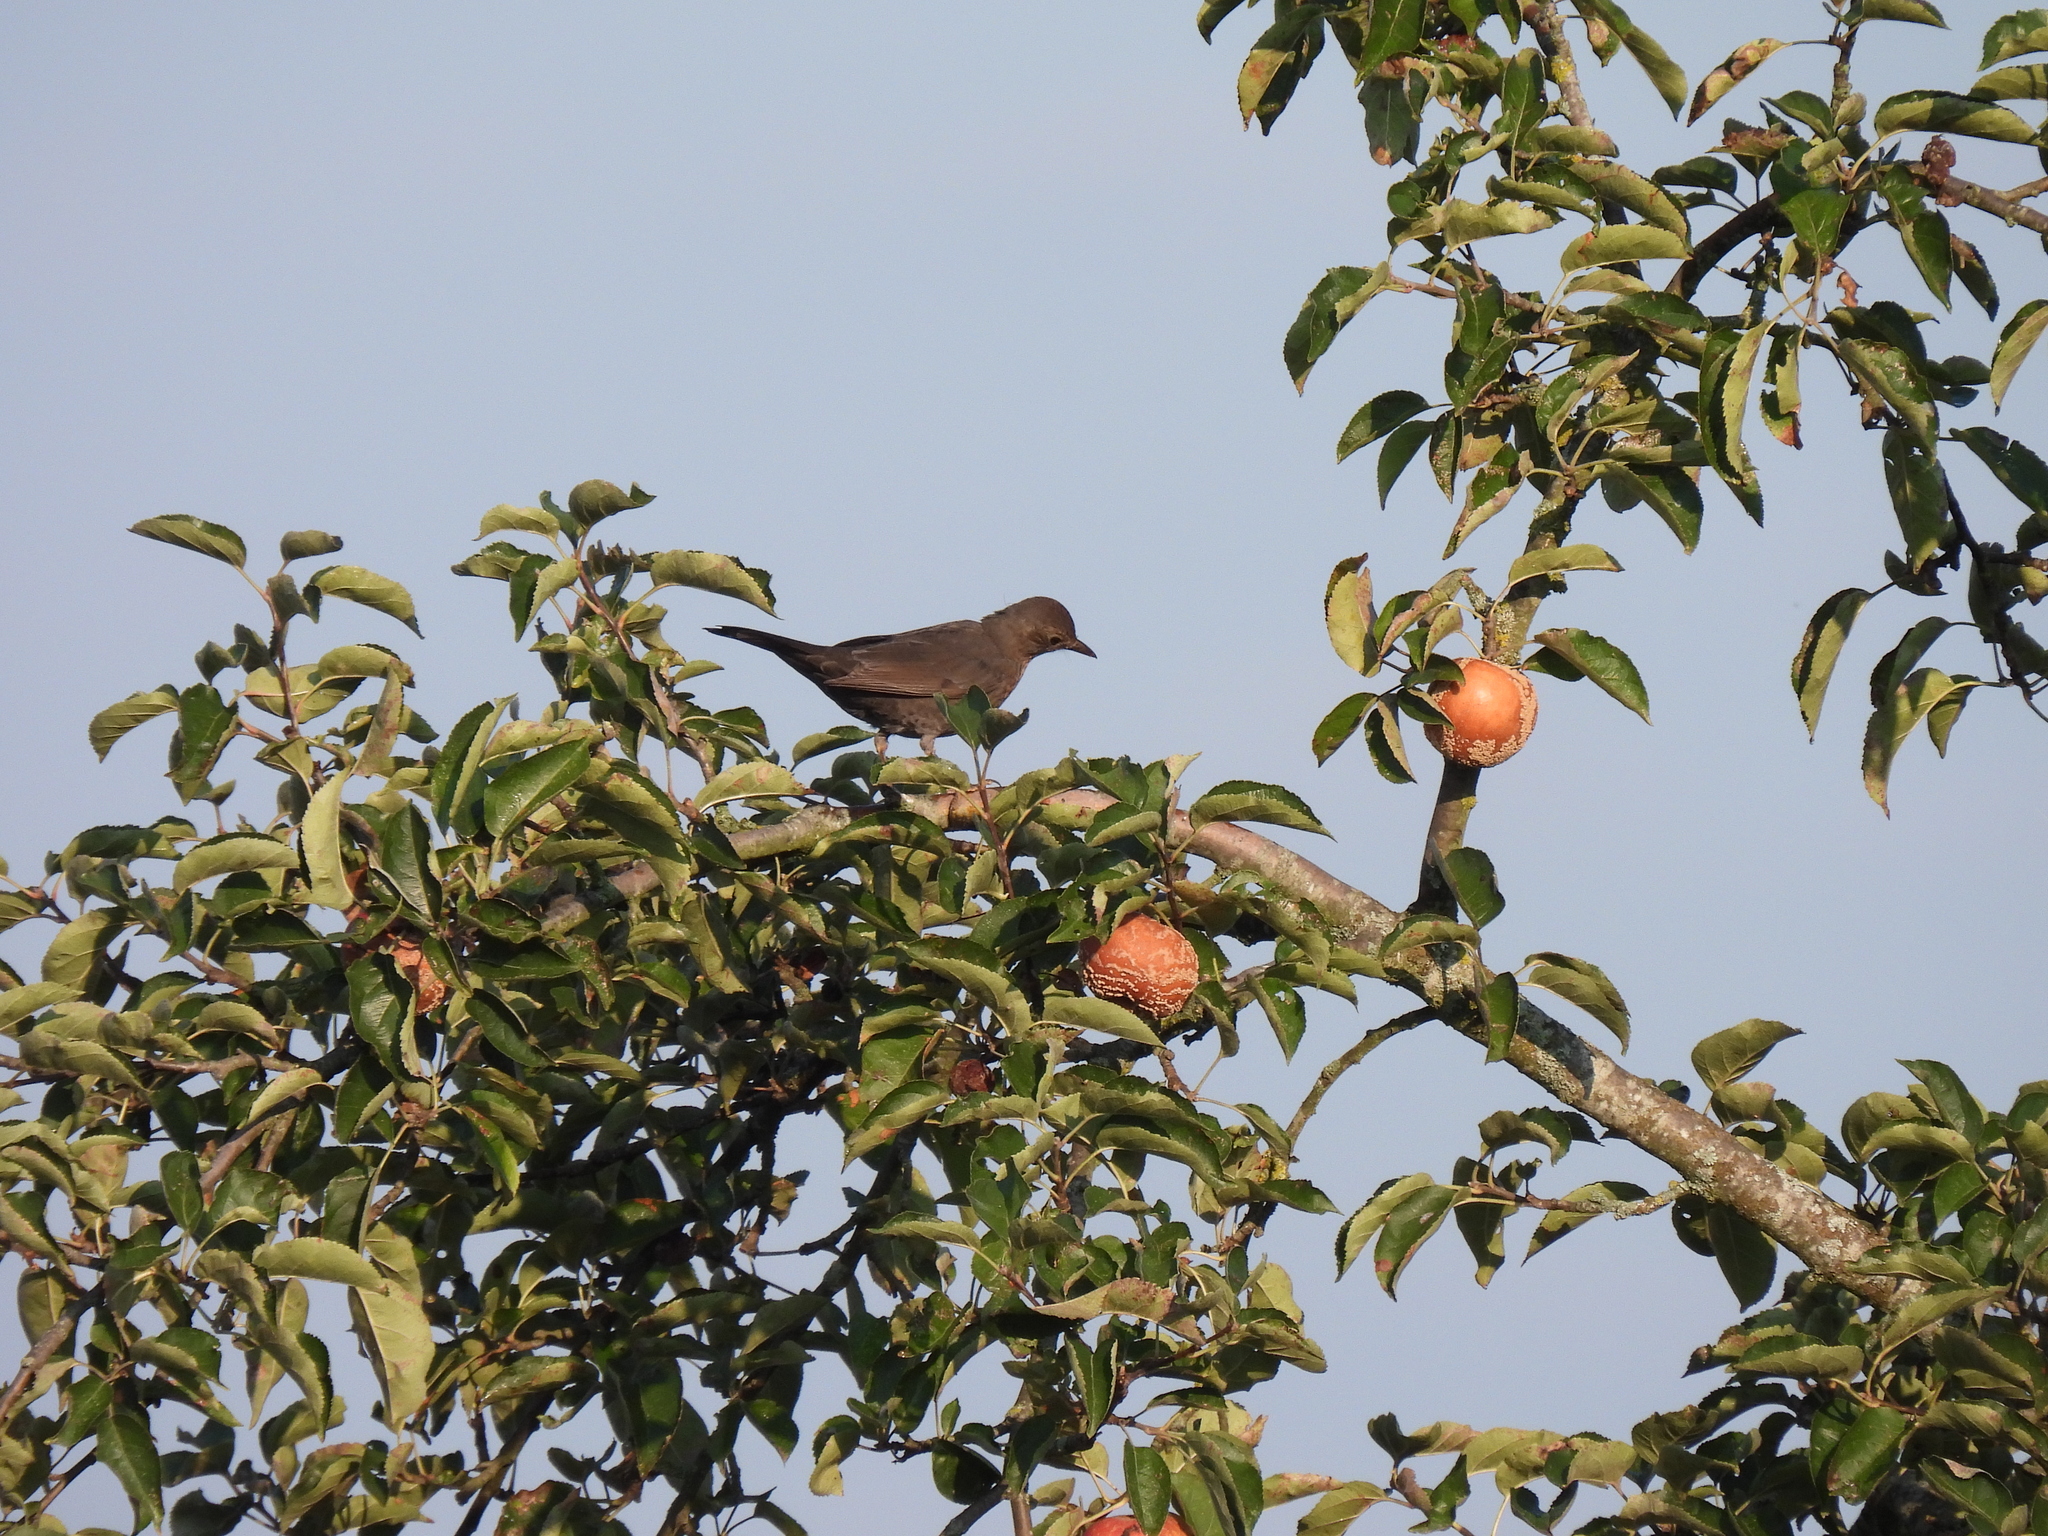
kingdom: Animalia
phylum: Chordata
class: Aves
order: Passeriformes
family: Turdidae
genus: Turdus
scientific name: Turdus merula
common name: Common blackbird
